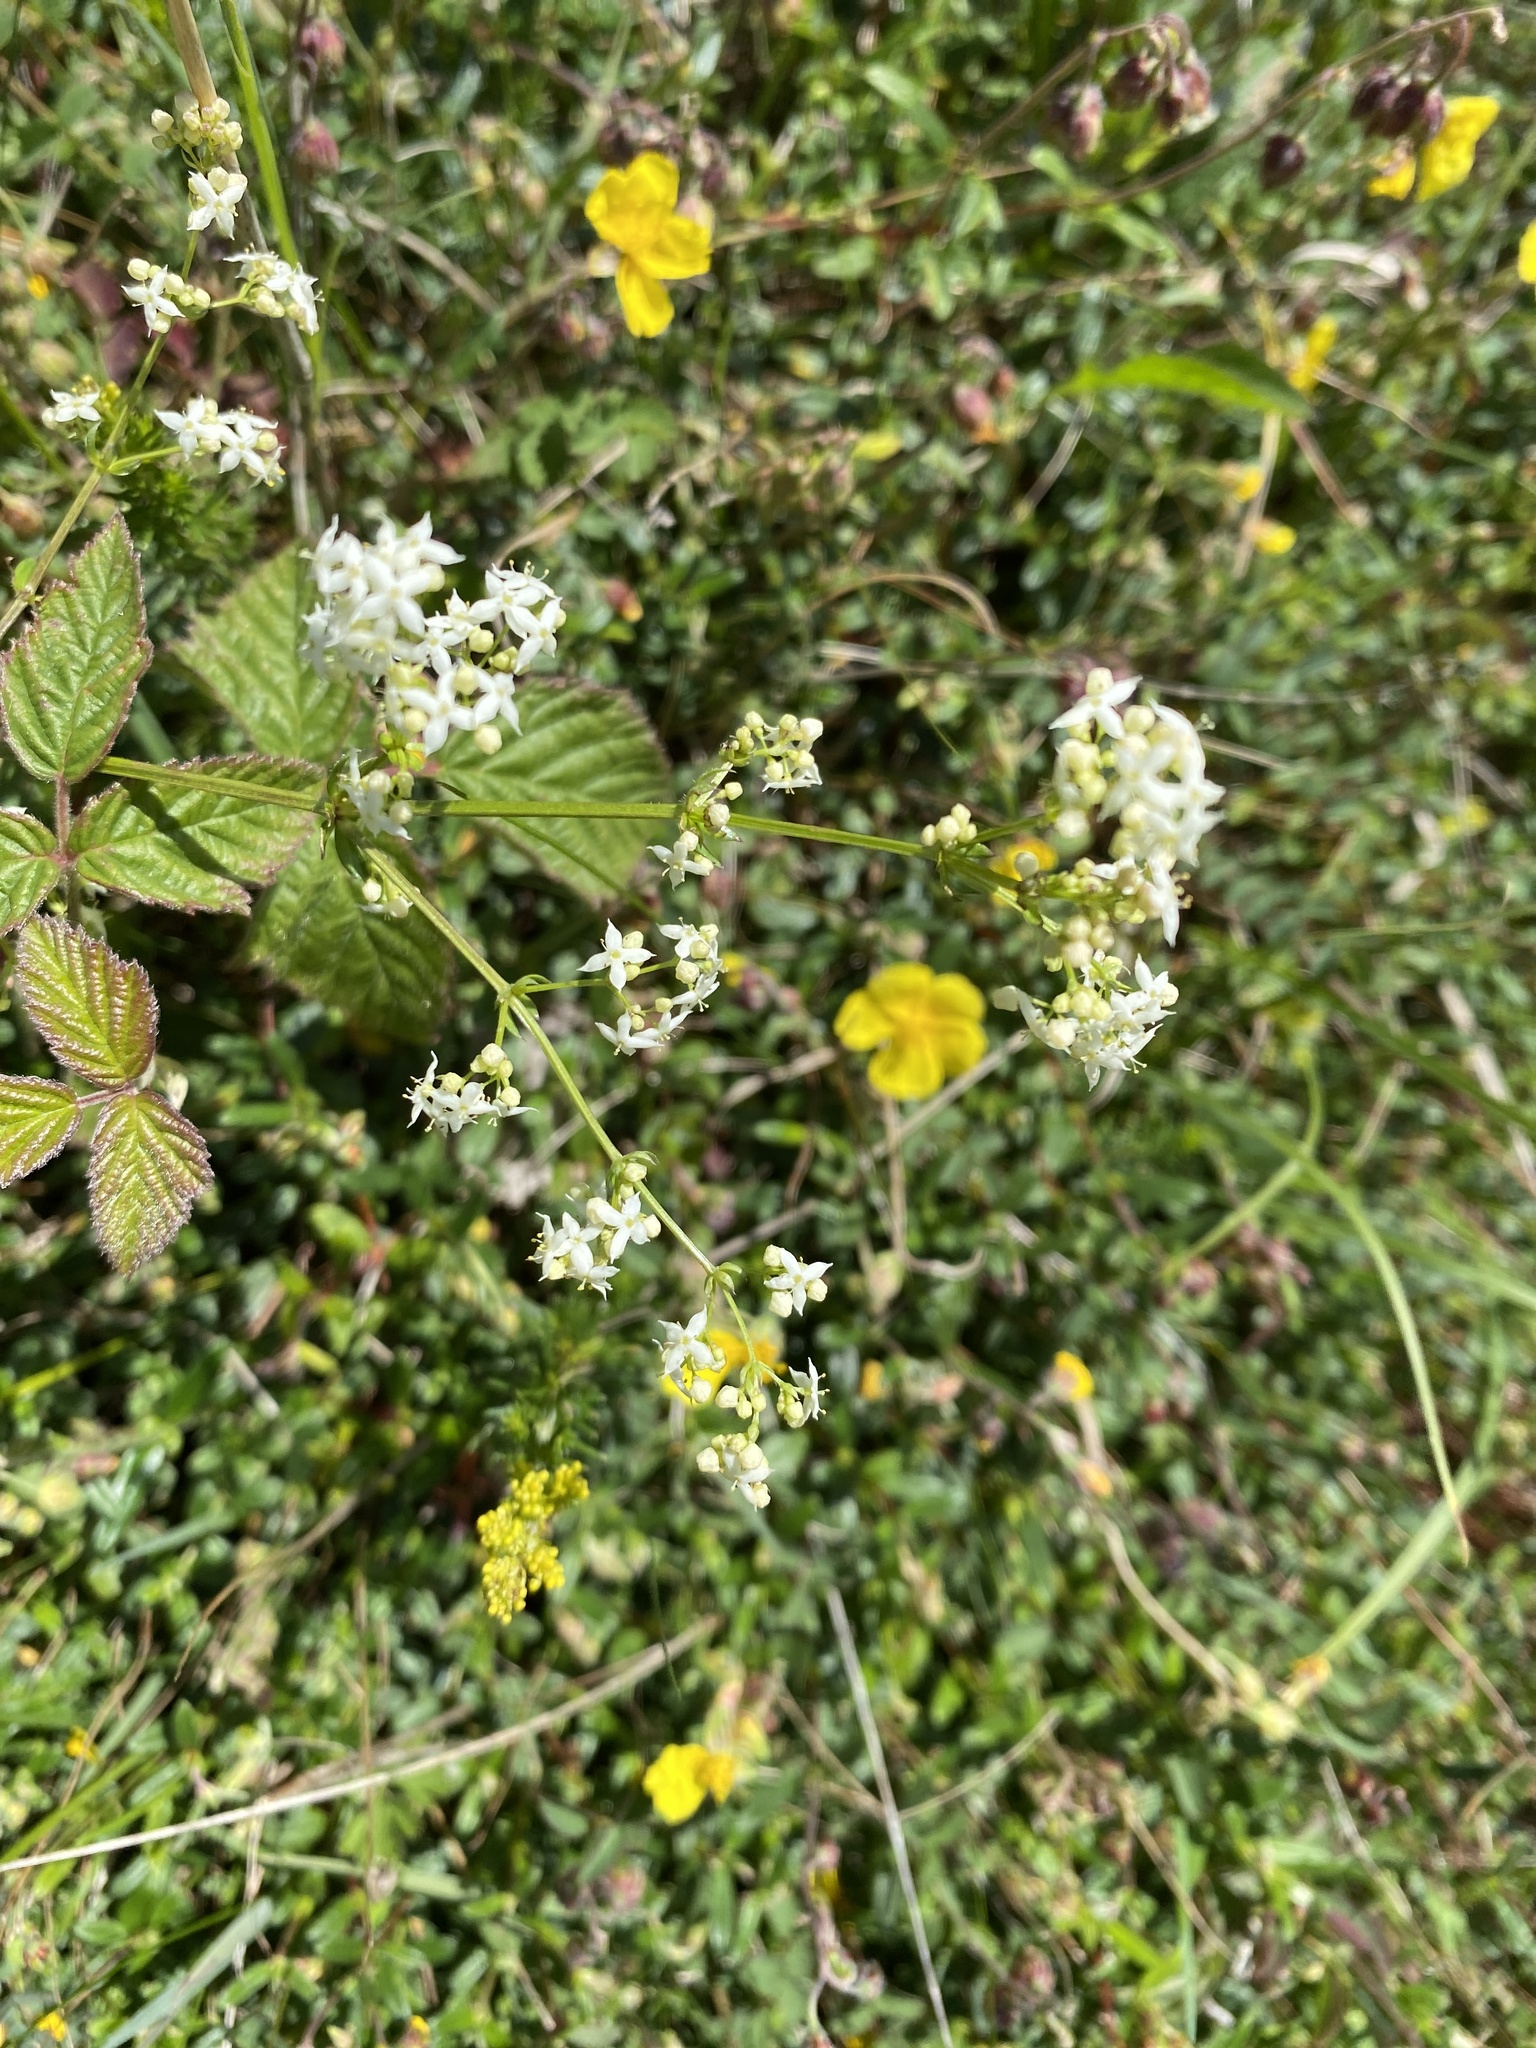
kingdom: Plantae
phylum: Tracheophyta
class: Magnoliopsida
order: Gentianales
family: Rubiaceae
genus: Galium
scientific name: Galium album
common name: White bedstraw
